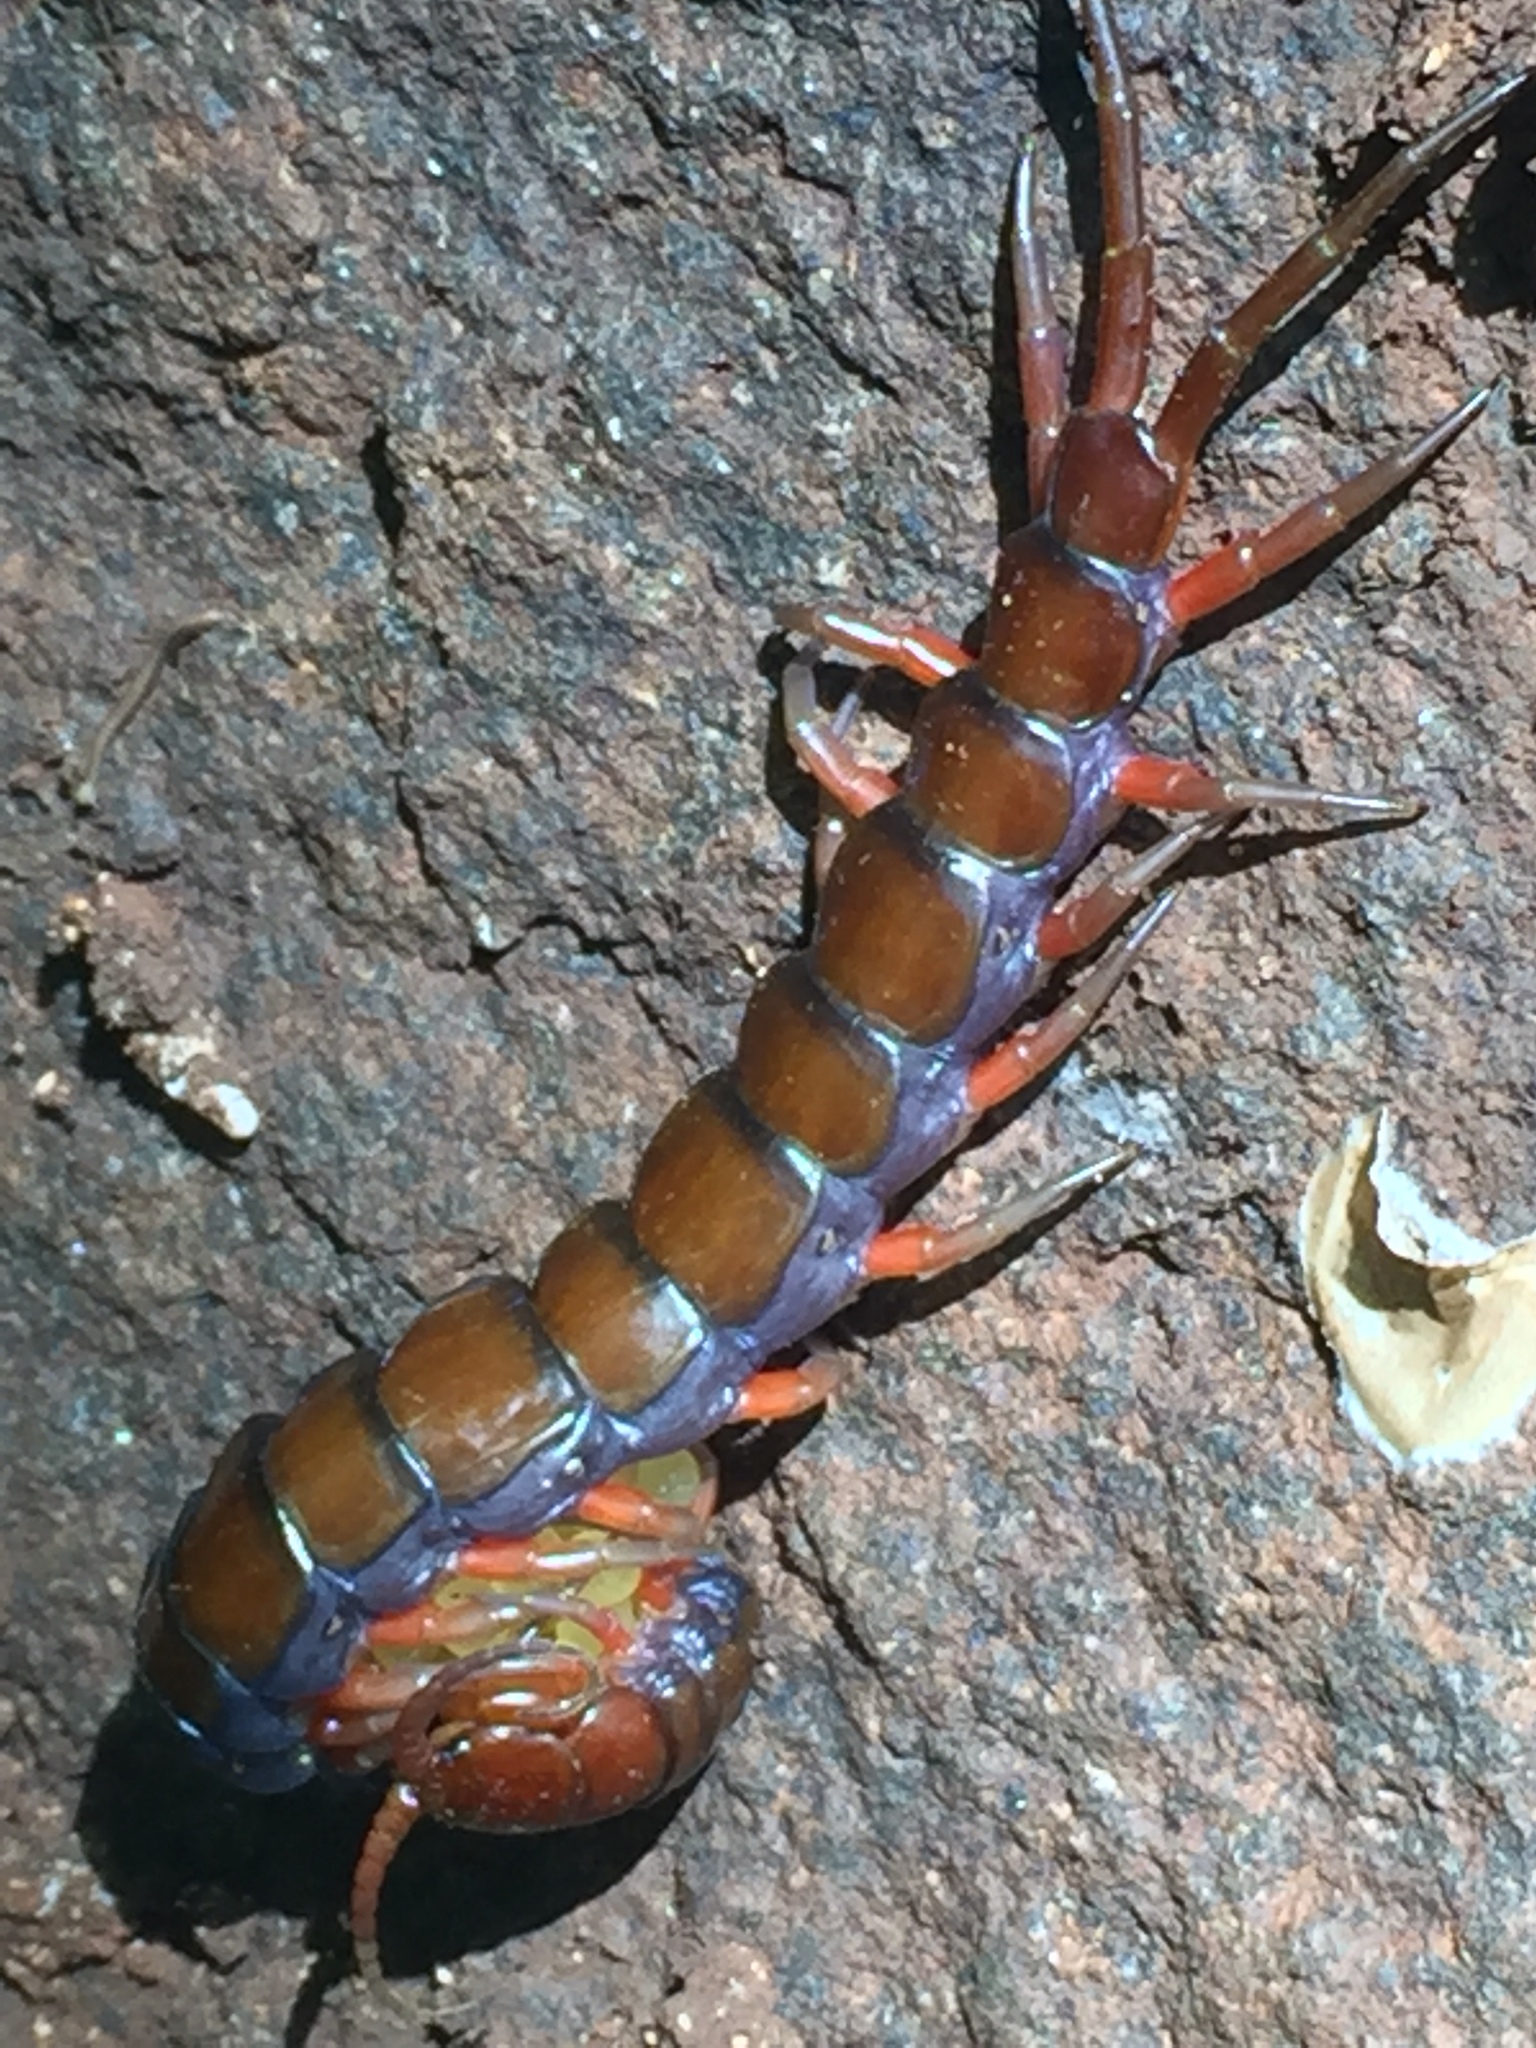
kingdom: Animalia
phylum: Arthropoda
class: Chilopoda
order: Scolopendromorpha
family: Scolopendridae
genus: Scolopendra
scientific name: Scolopendra subspinipes
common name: Centipede
